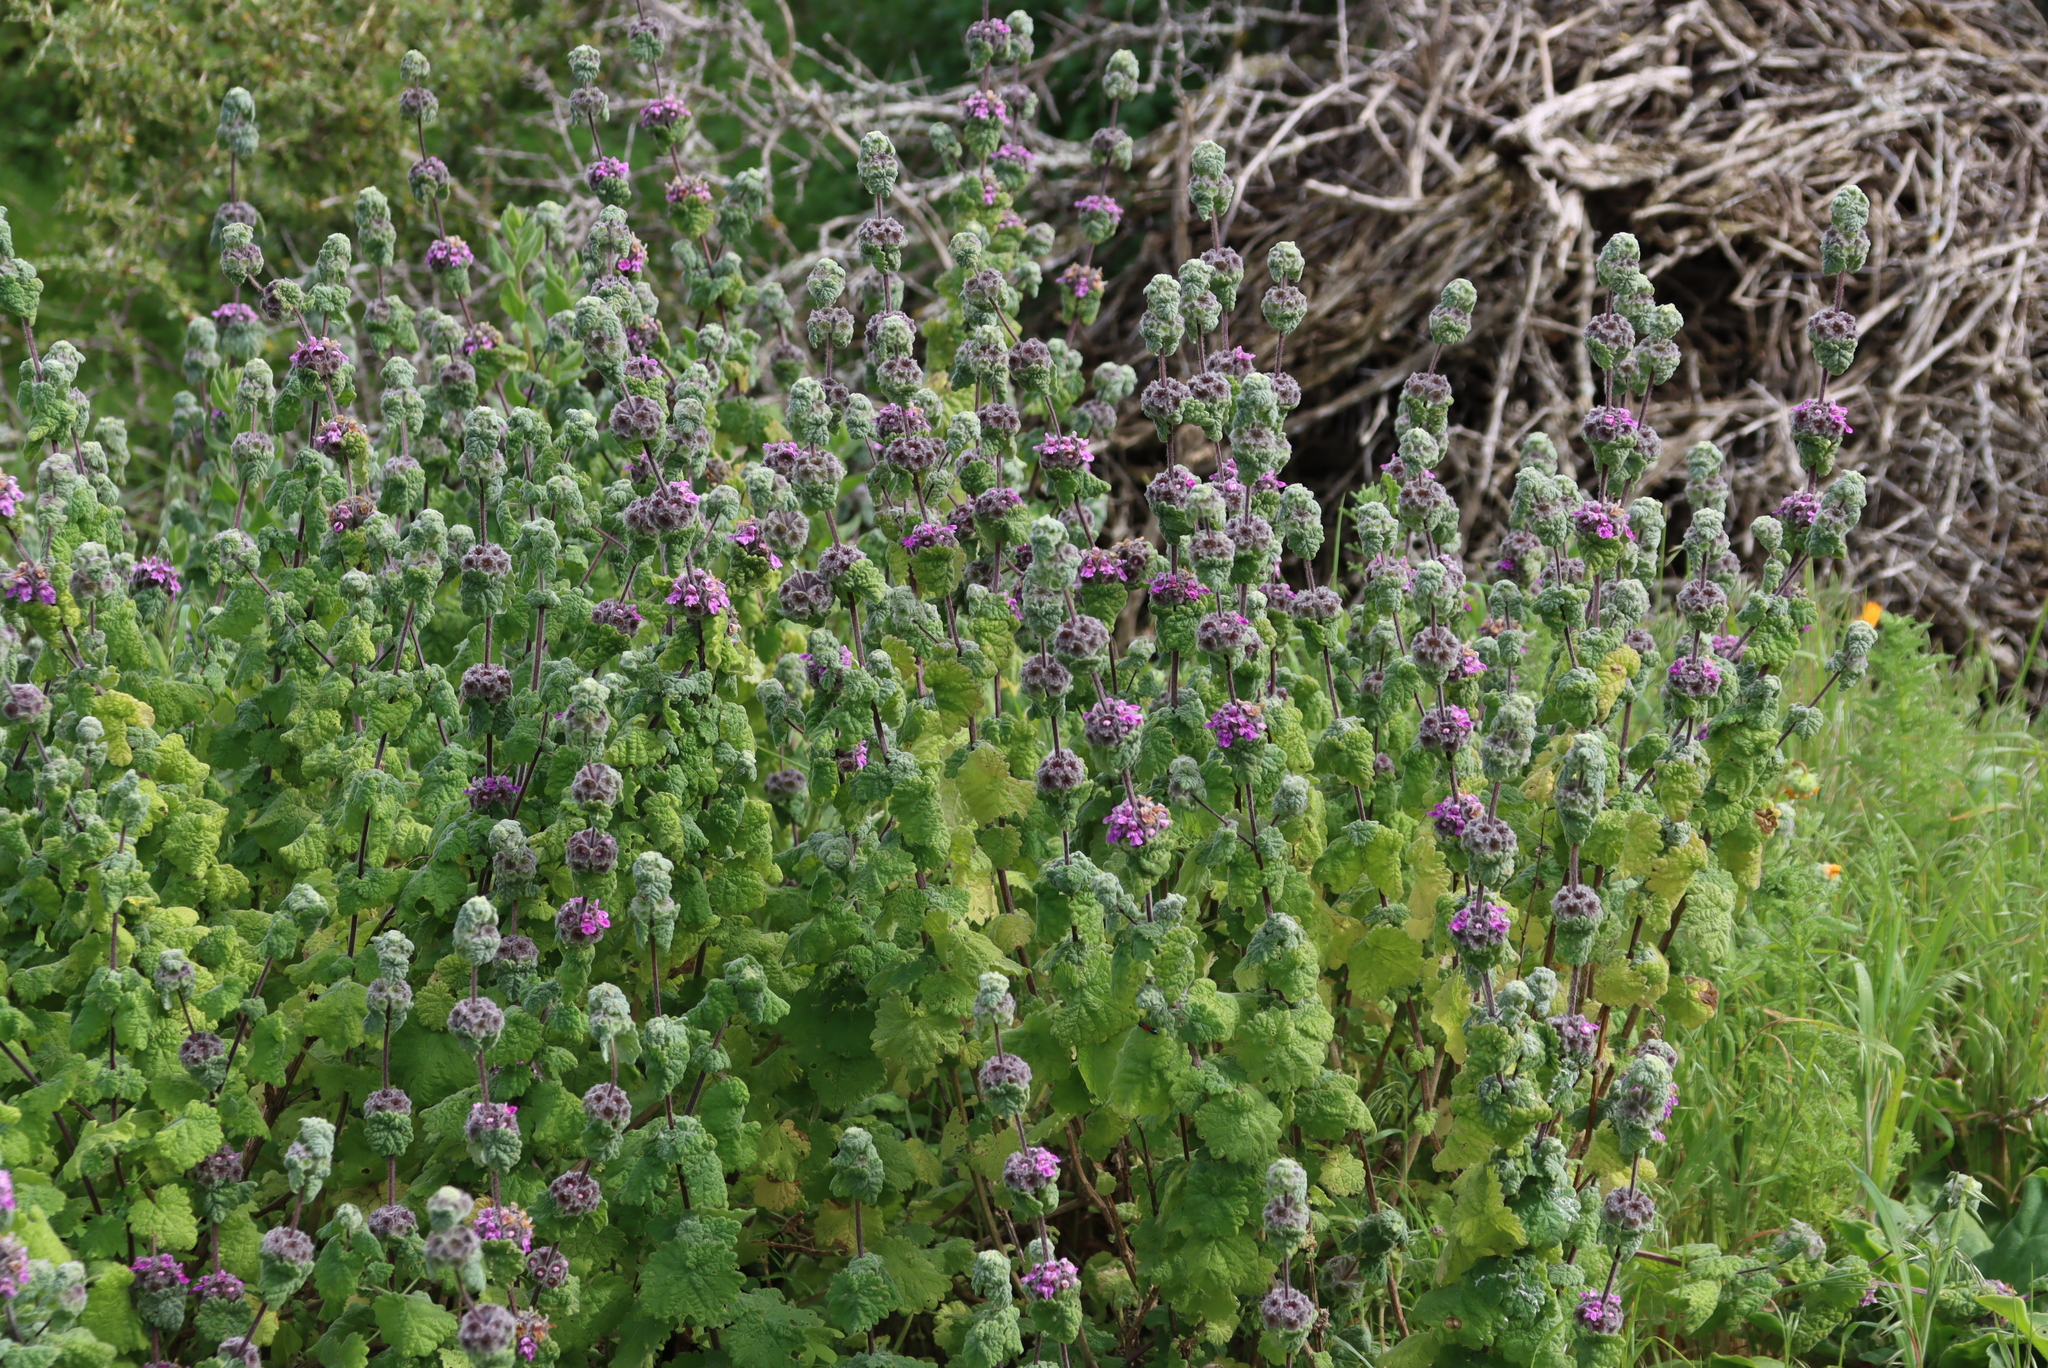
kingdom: Plantae
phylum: Tracheophyta
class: Magnoliopsida
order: Lamiales
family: Lamiaceae
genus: Pseudodictamnus
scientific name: Pseudodictamnus africanus
